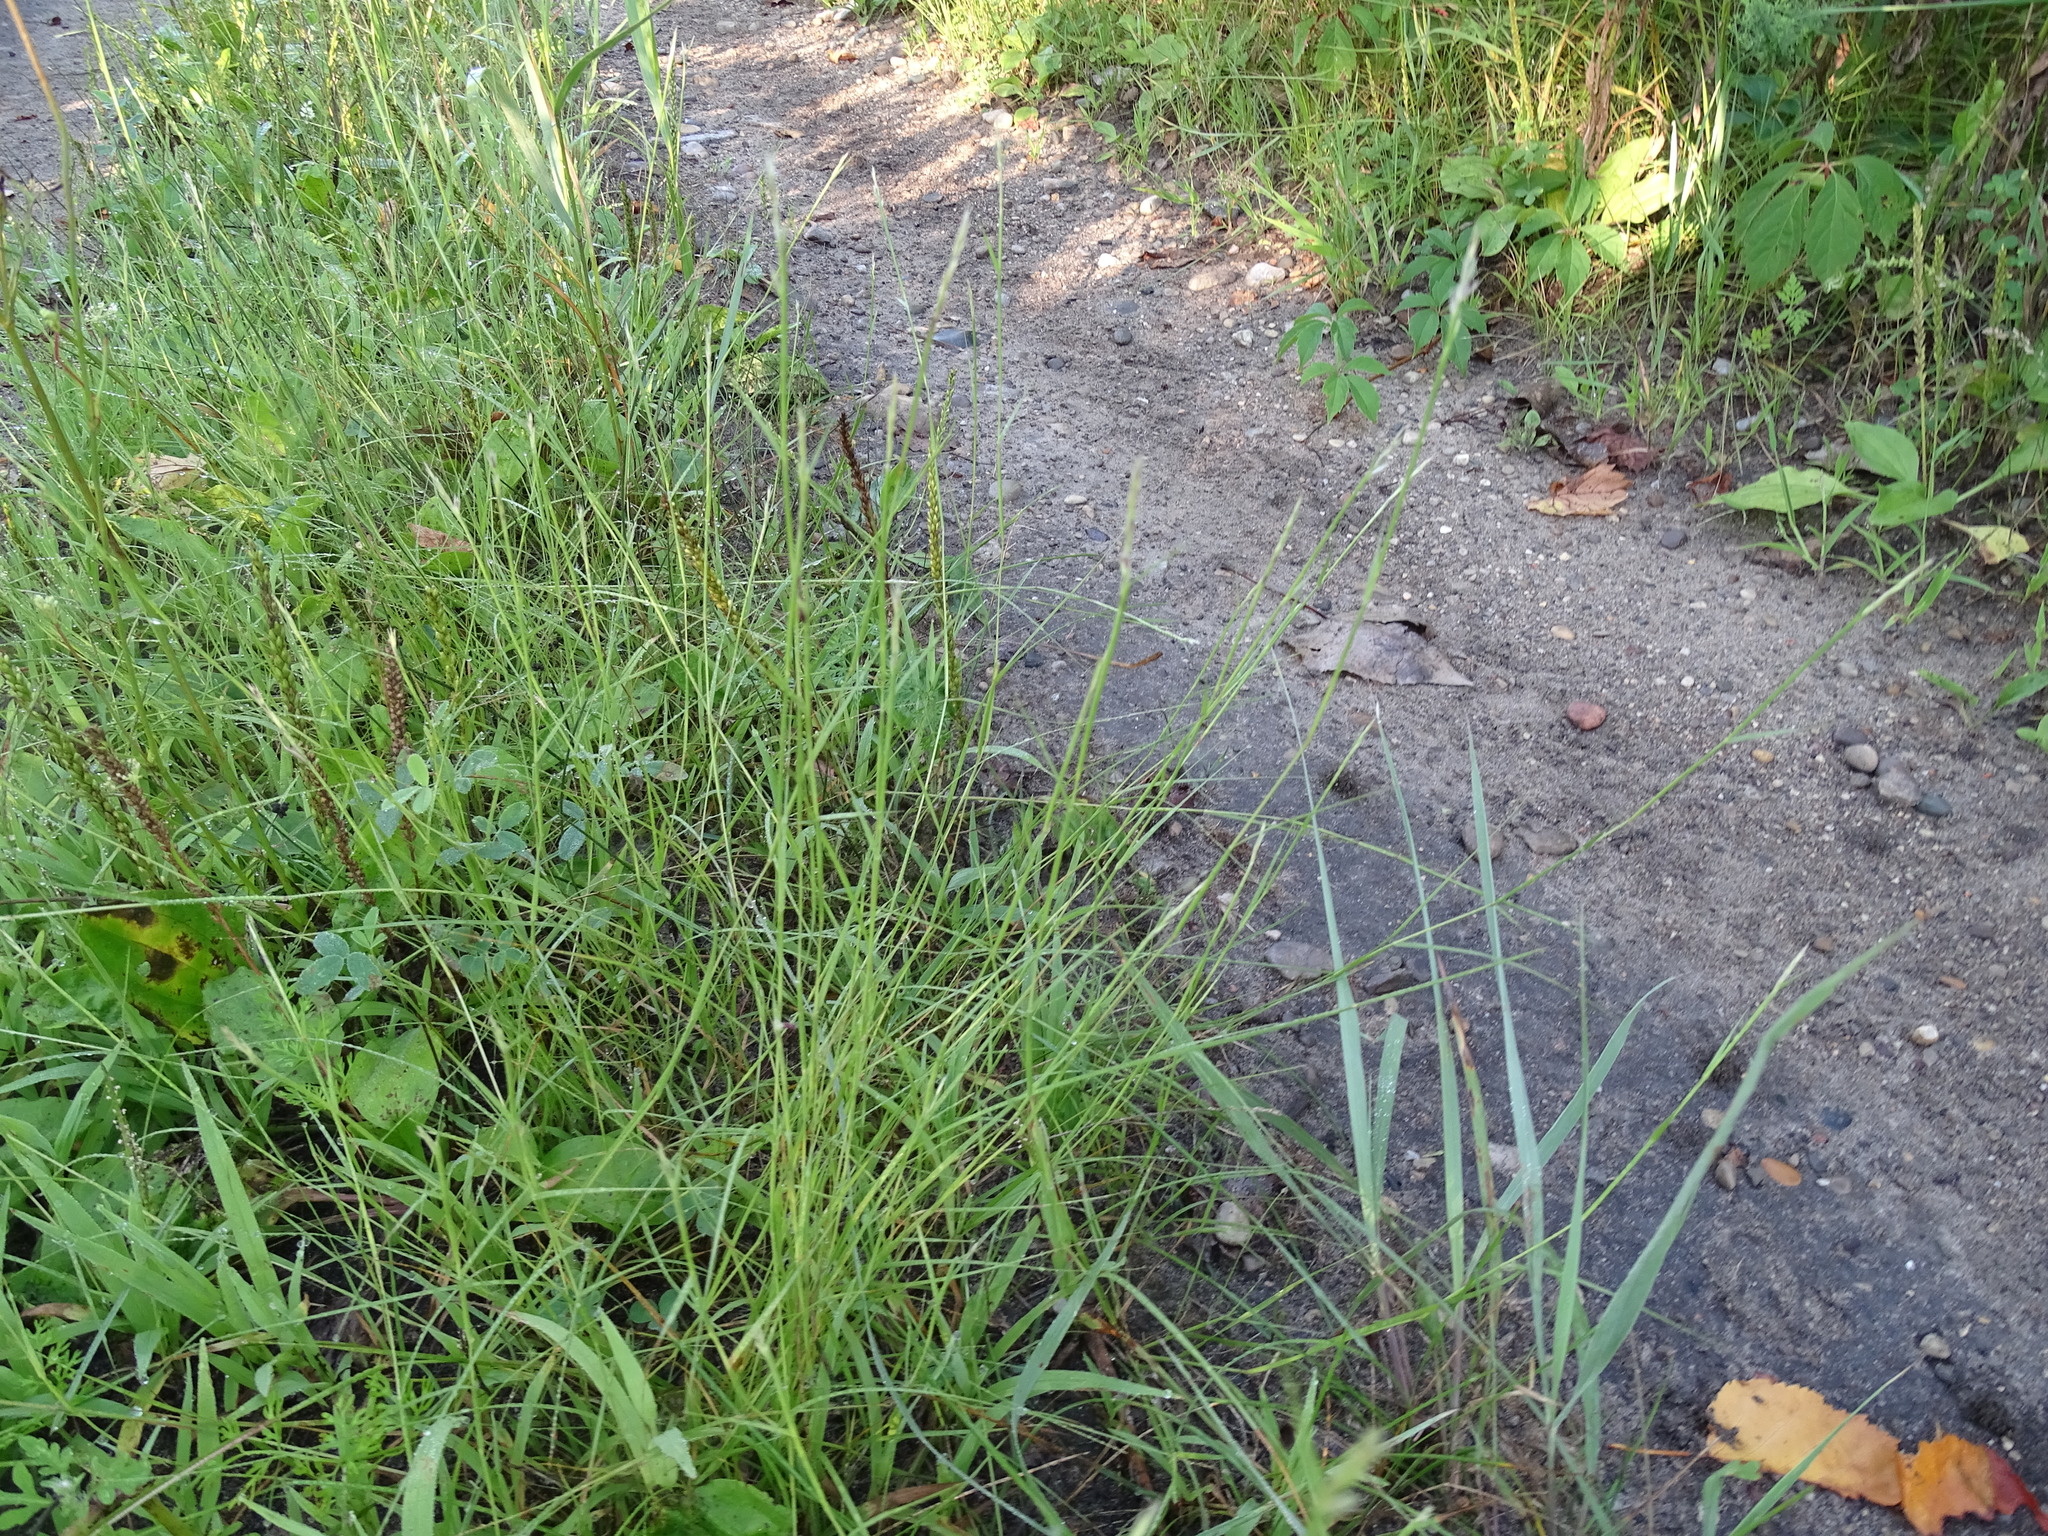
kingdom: Plantae
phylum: Tracheophyta
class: Liliopsida
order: Poales
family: Poaceae
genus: Sporobolus
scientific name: Sporobolus vaginiflorus
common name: Poverty dropseed
